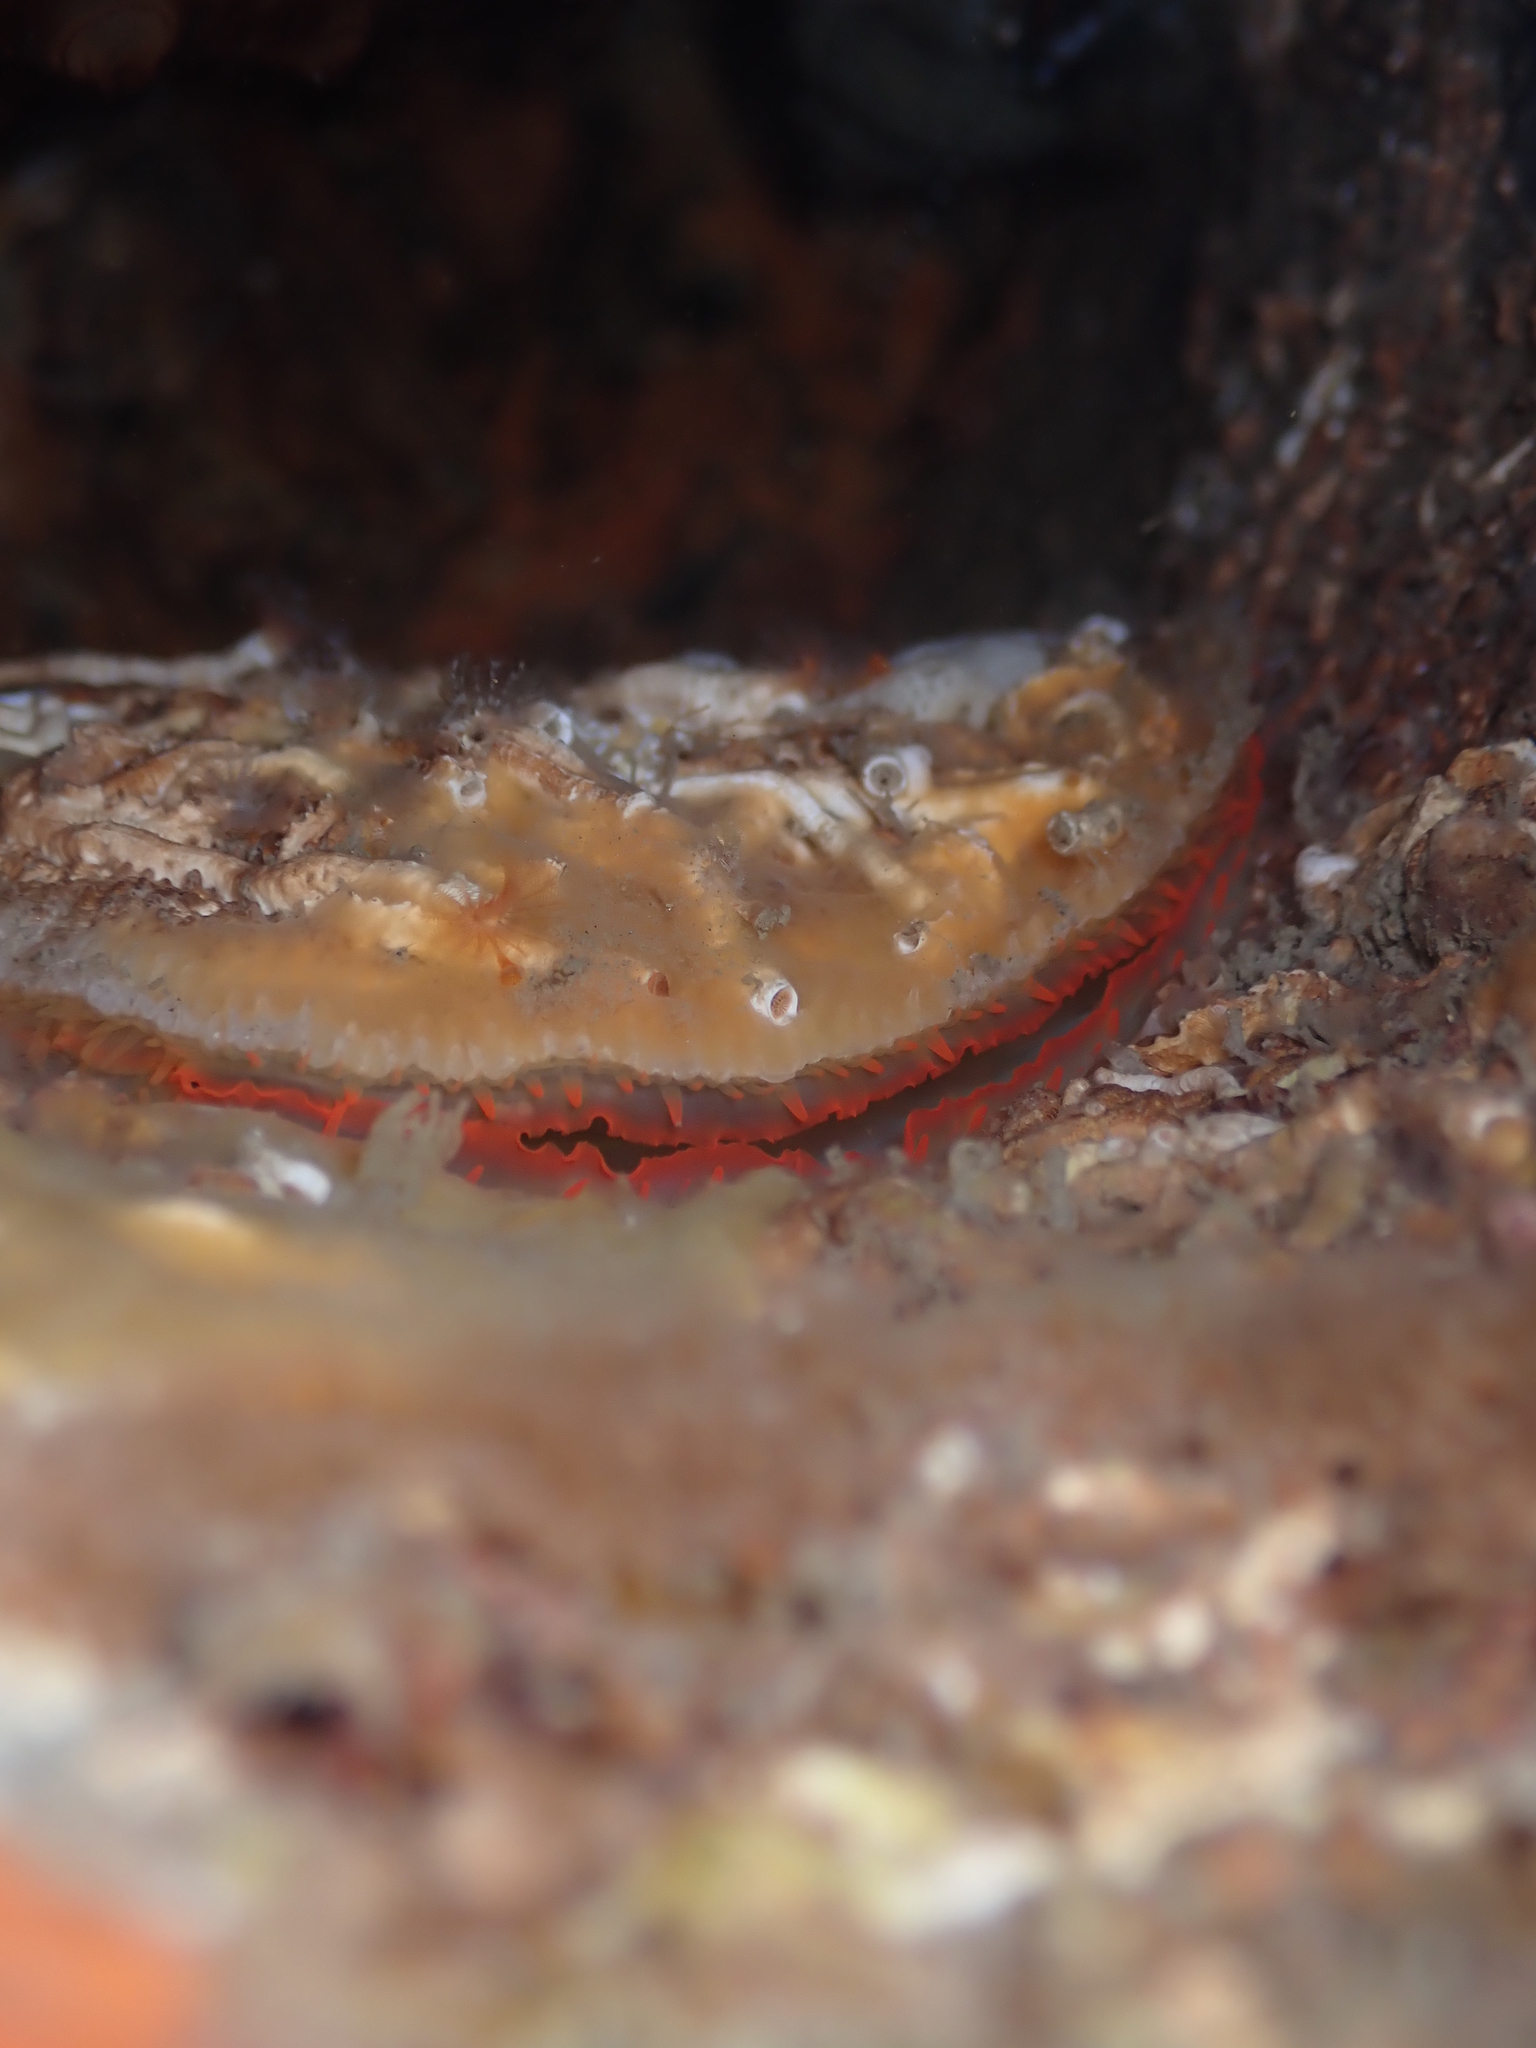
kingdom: Animalia
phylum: Mollusca
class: Bivalvia
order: Pectinida
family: Anomiidae
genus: Monia
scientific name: Monia zelandica
